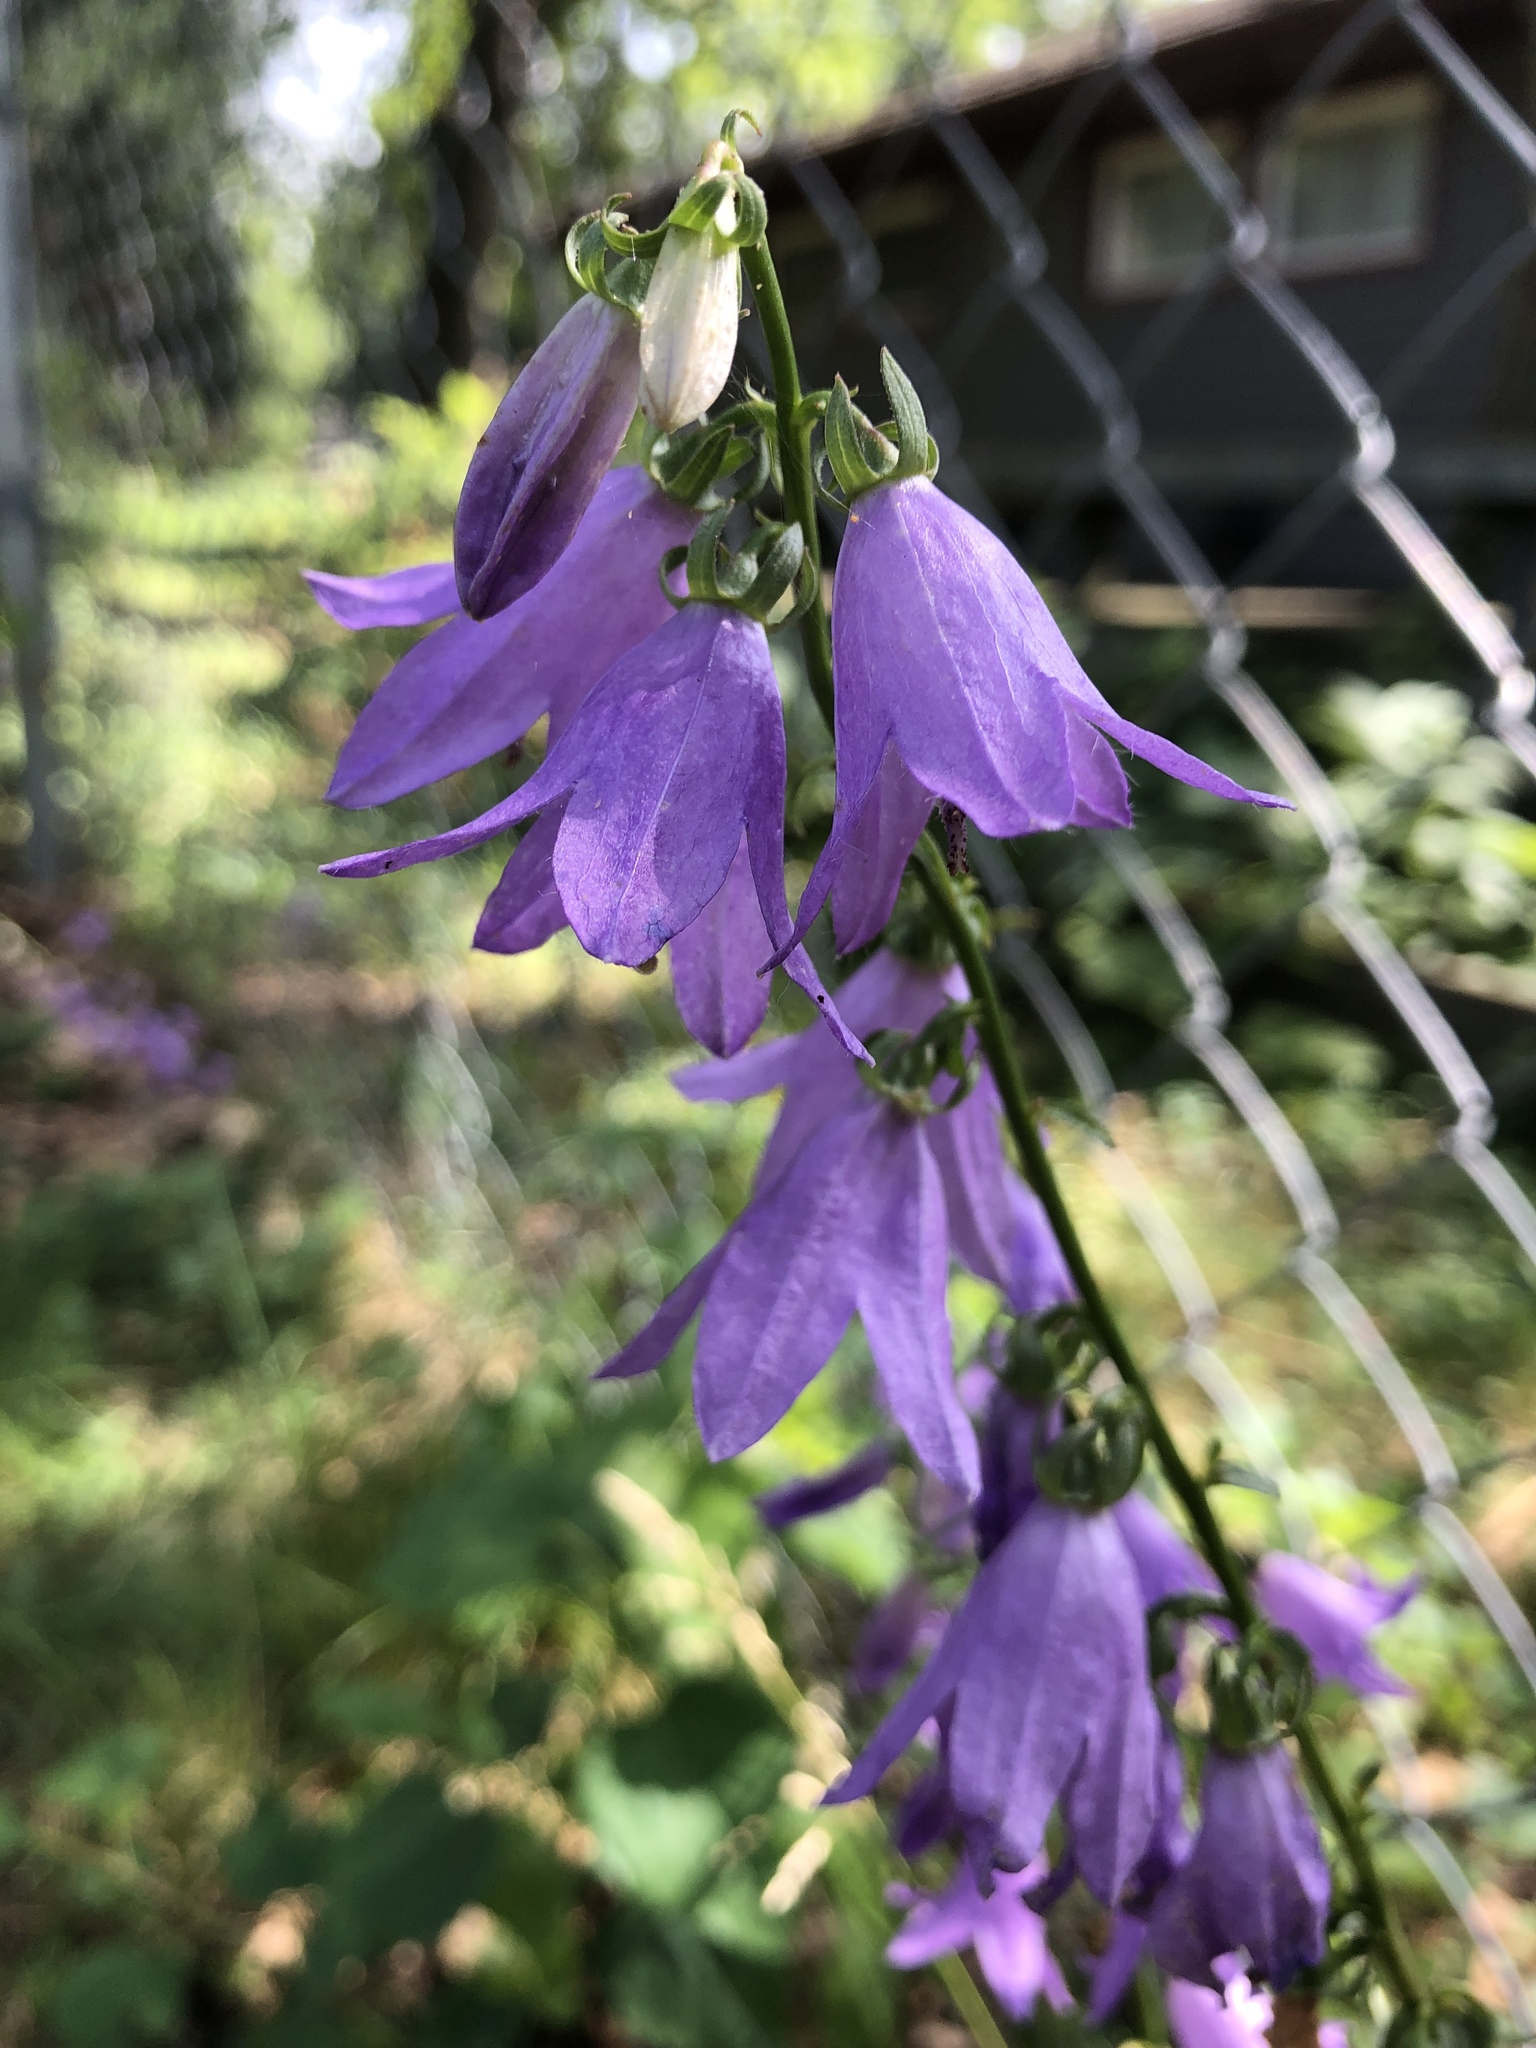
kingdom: Plantae
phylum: Tracheophyta
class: Magnoliopsida
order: Asterales
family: Campanulaceae
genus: Campanula
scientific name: Campanula rapunculoides
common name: Creeping bellflower
